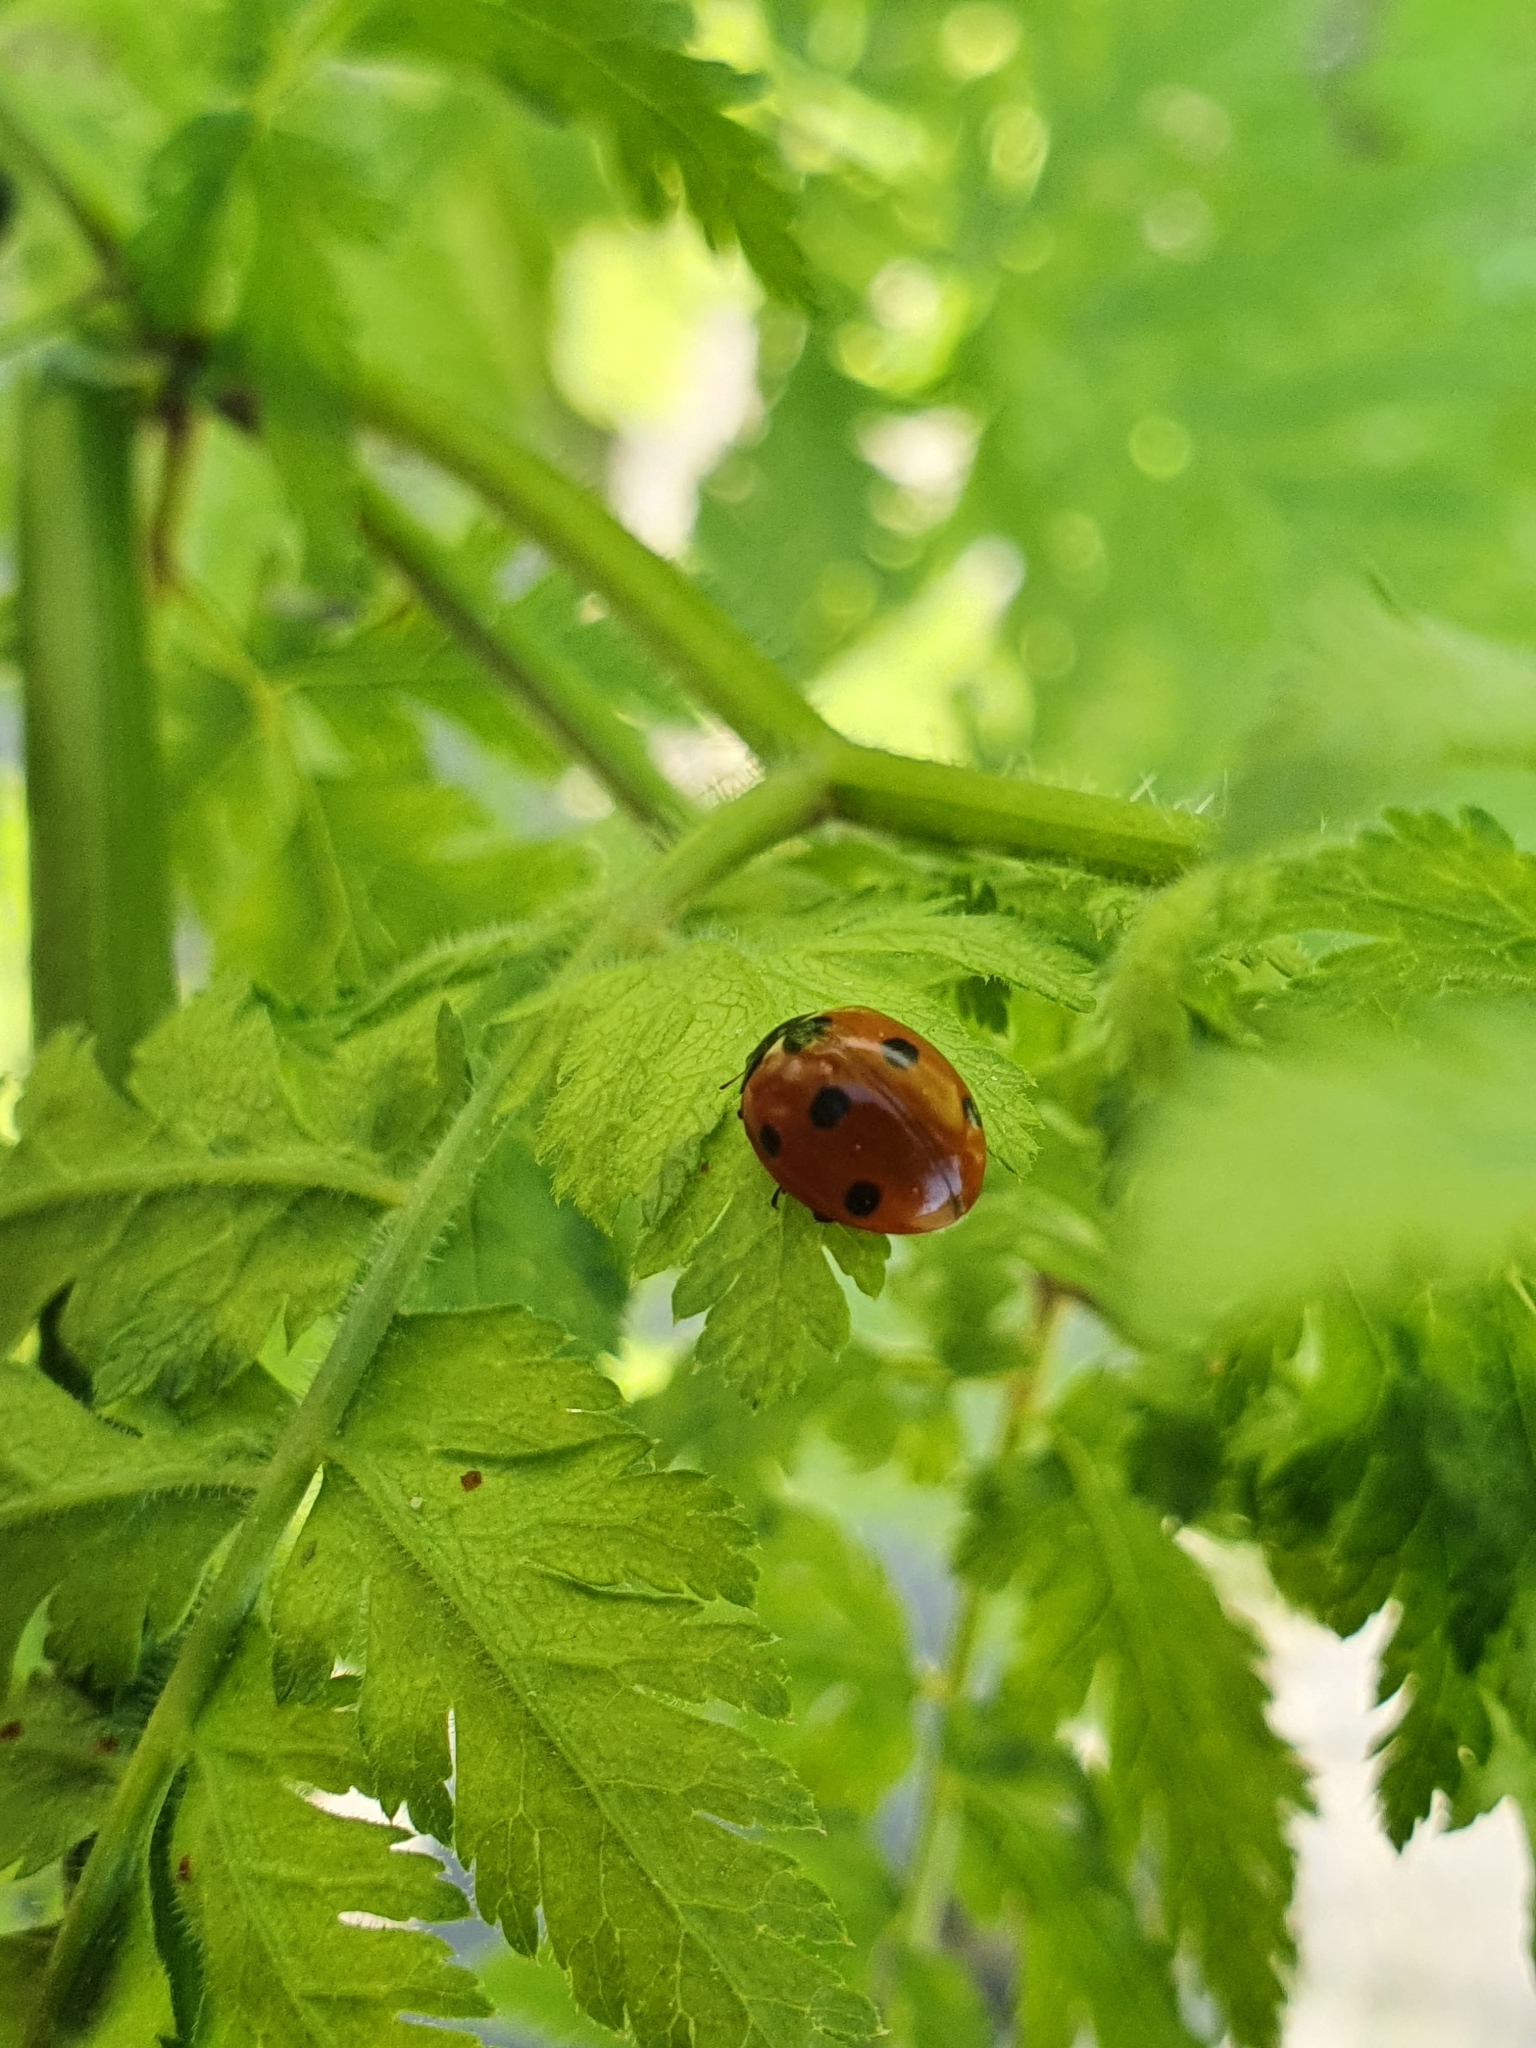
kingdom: Animalia
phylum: Arthropoda
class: Insecta
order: Coleoptera
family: Coccinellidae
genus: Coccinella
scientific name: Coccinella septempunctata
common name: Sevenspotted lady beetle
